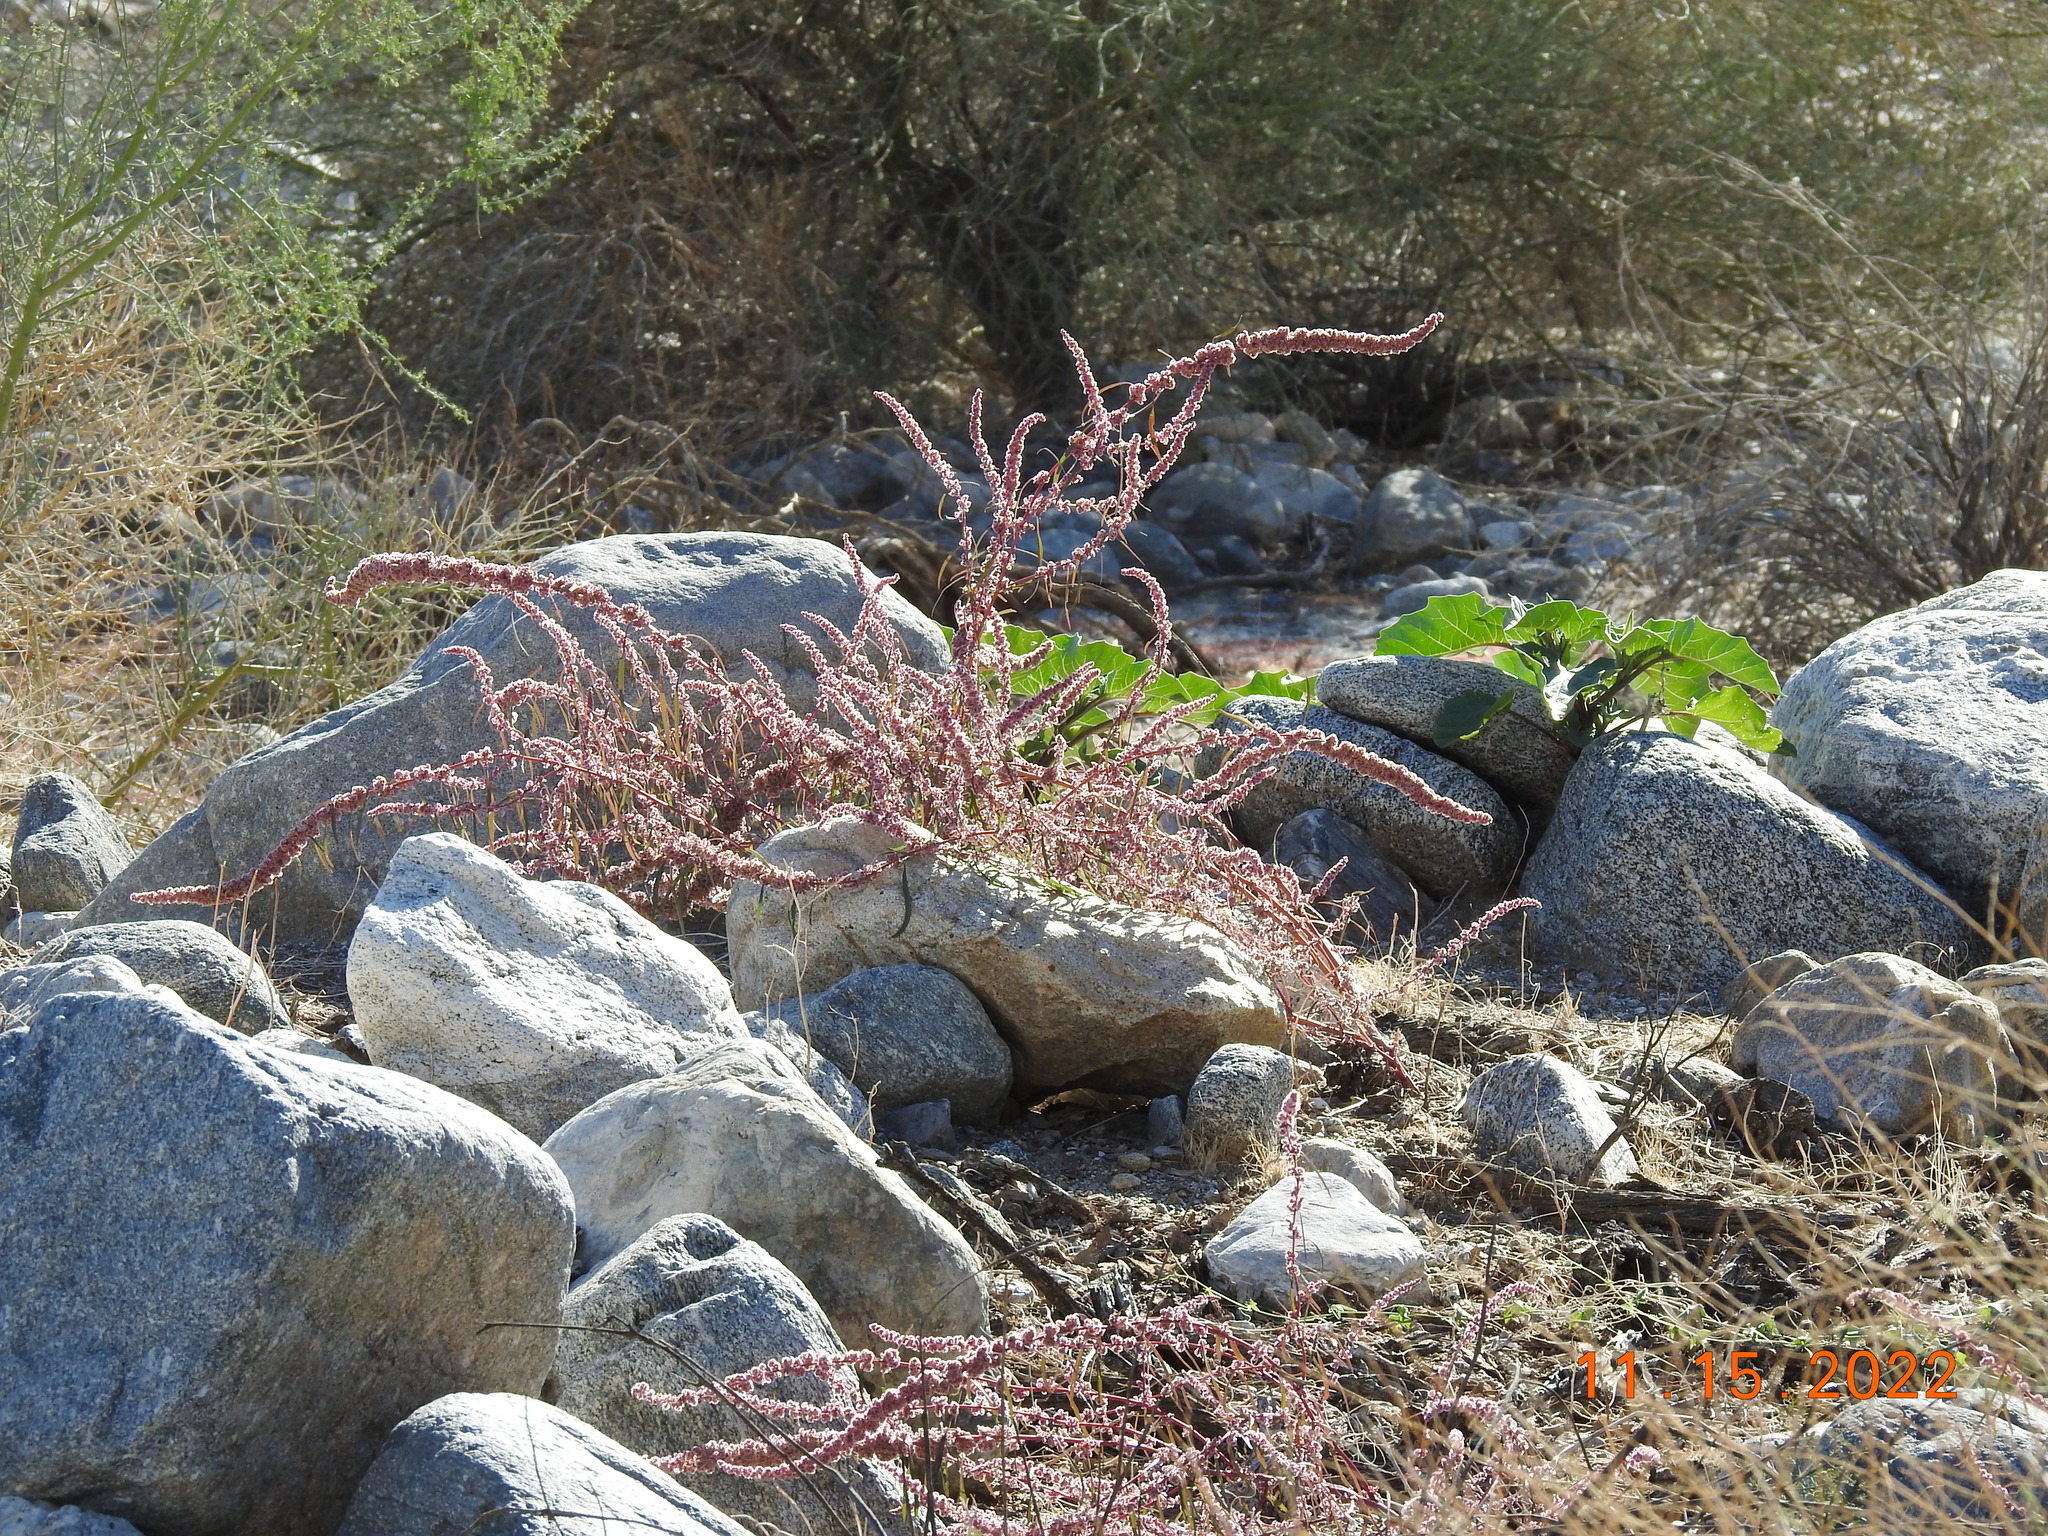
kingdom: Plantae
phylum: Tracheophyta
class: Magnoliopsida
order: Caryophyllales
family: Amaranthaceae
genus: Amaranthus
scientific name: Amaranthus fimbriatus
